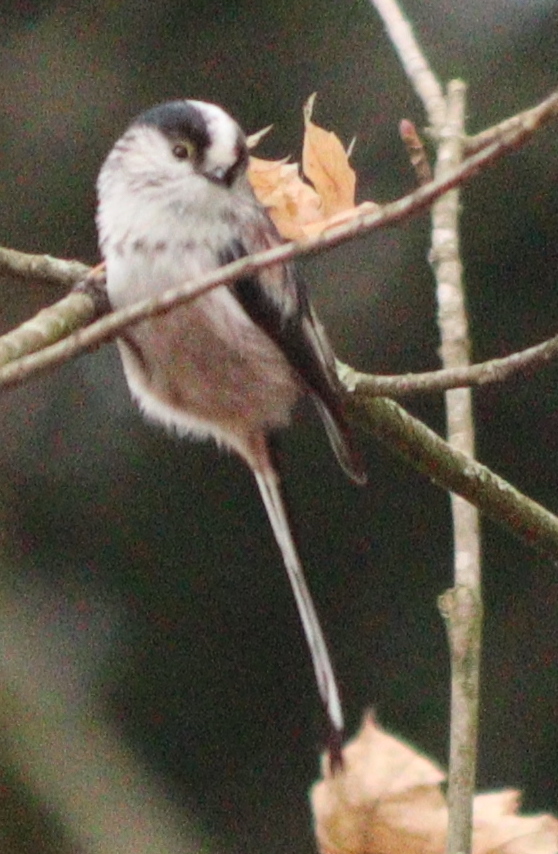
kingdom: Animalia
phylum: Chordata
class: Aves
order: Passeriformes
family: Aegithalidae
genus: Aegithalos
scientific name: Aegithalos caudatus
